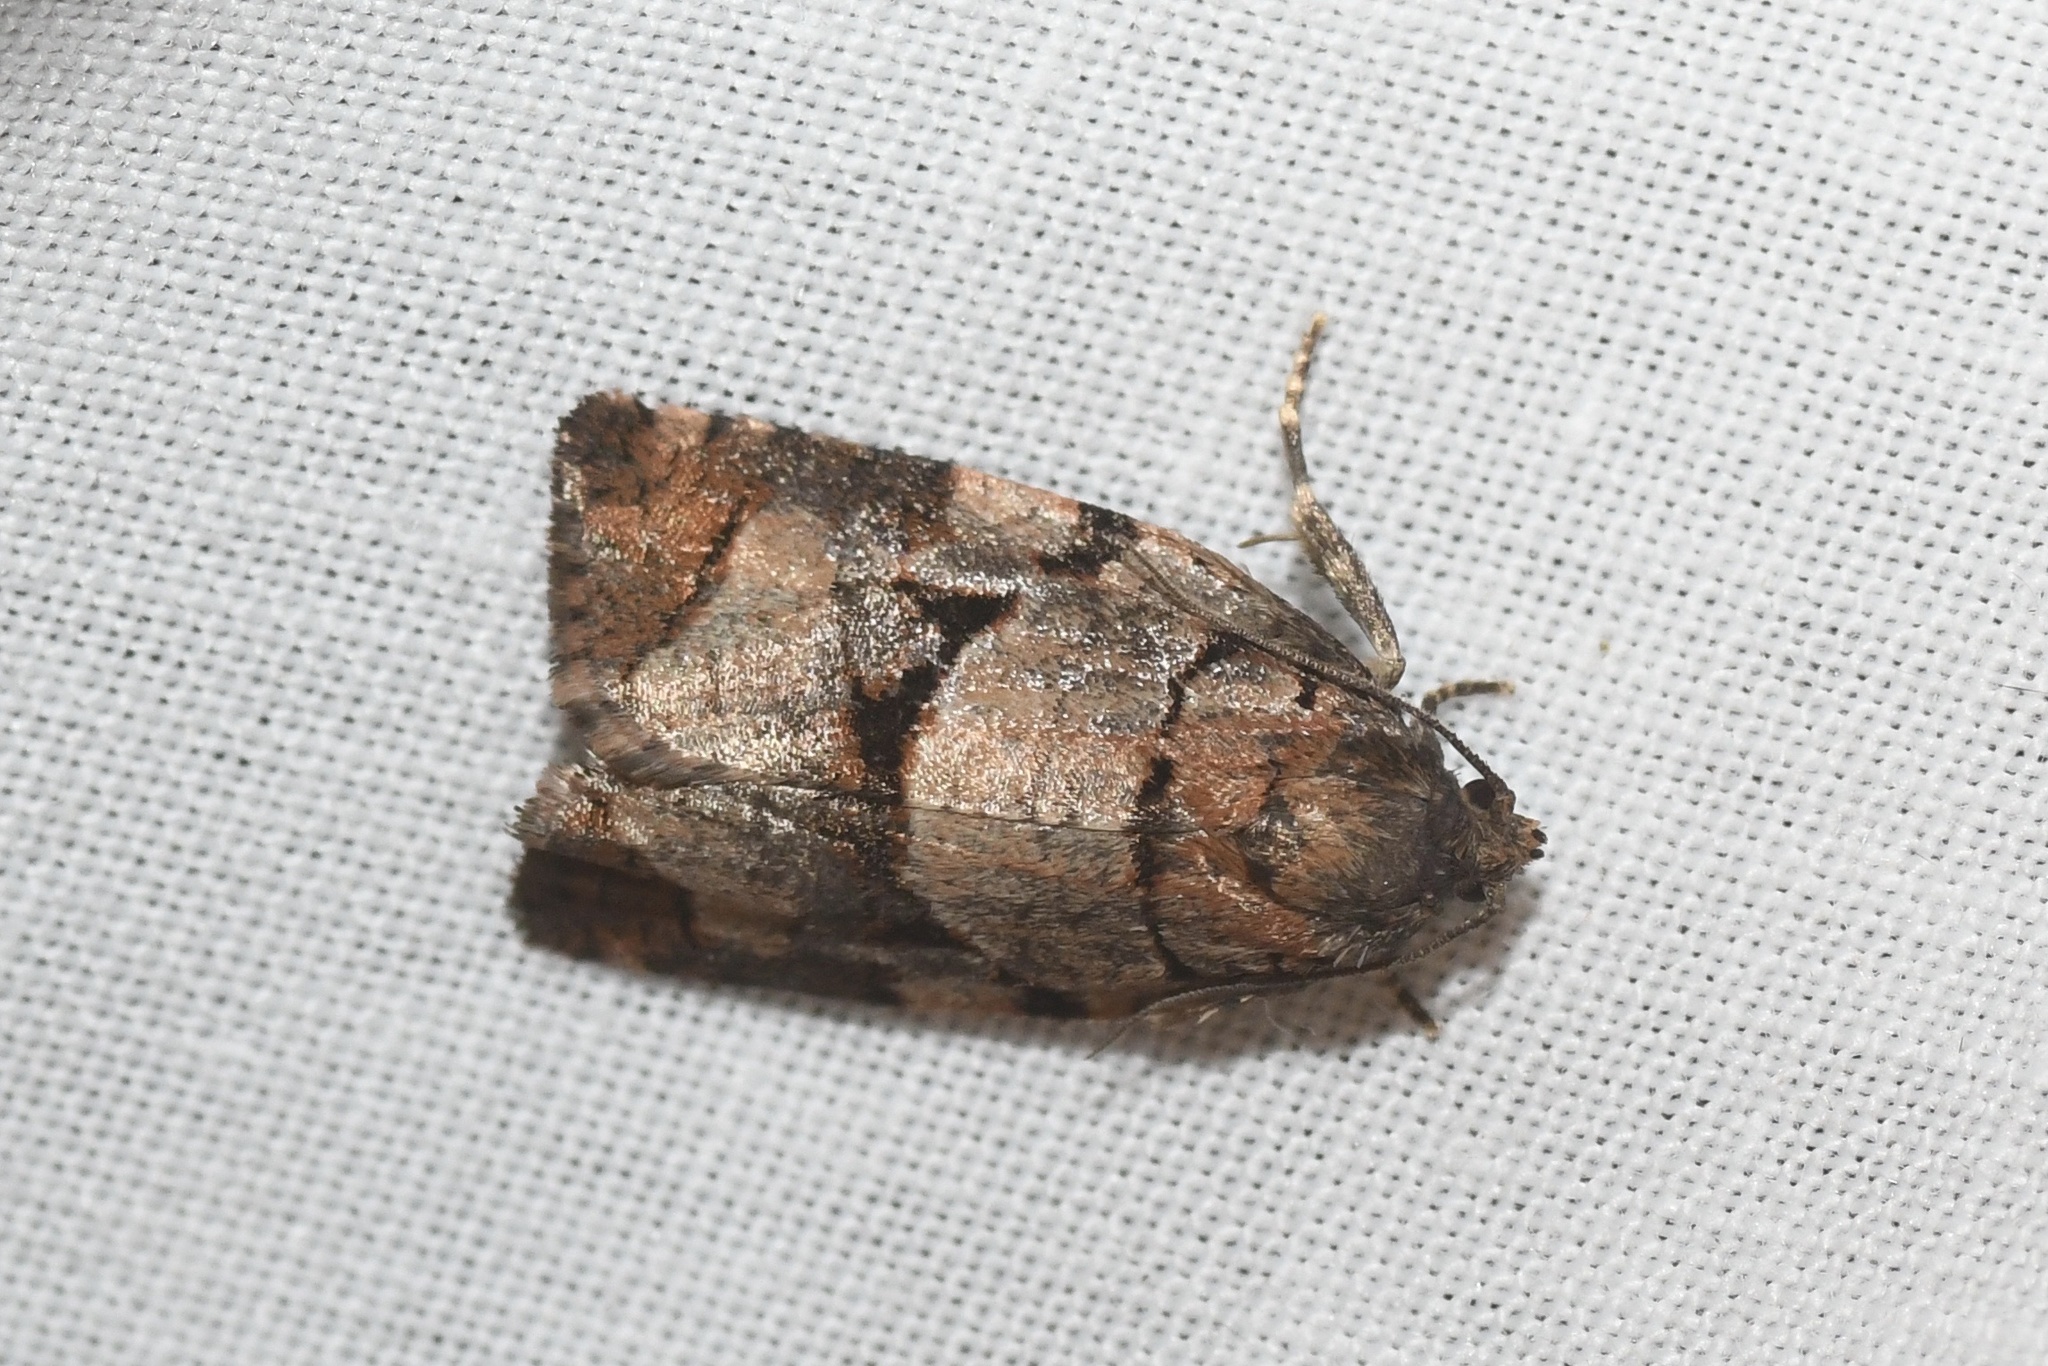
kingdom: Animalia
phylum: Arthropoda
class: Insecta
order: Lepidoptera
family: Tortricidae
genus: Archips
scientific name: Archips alberta
